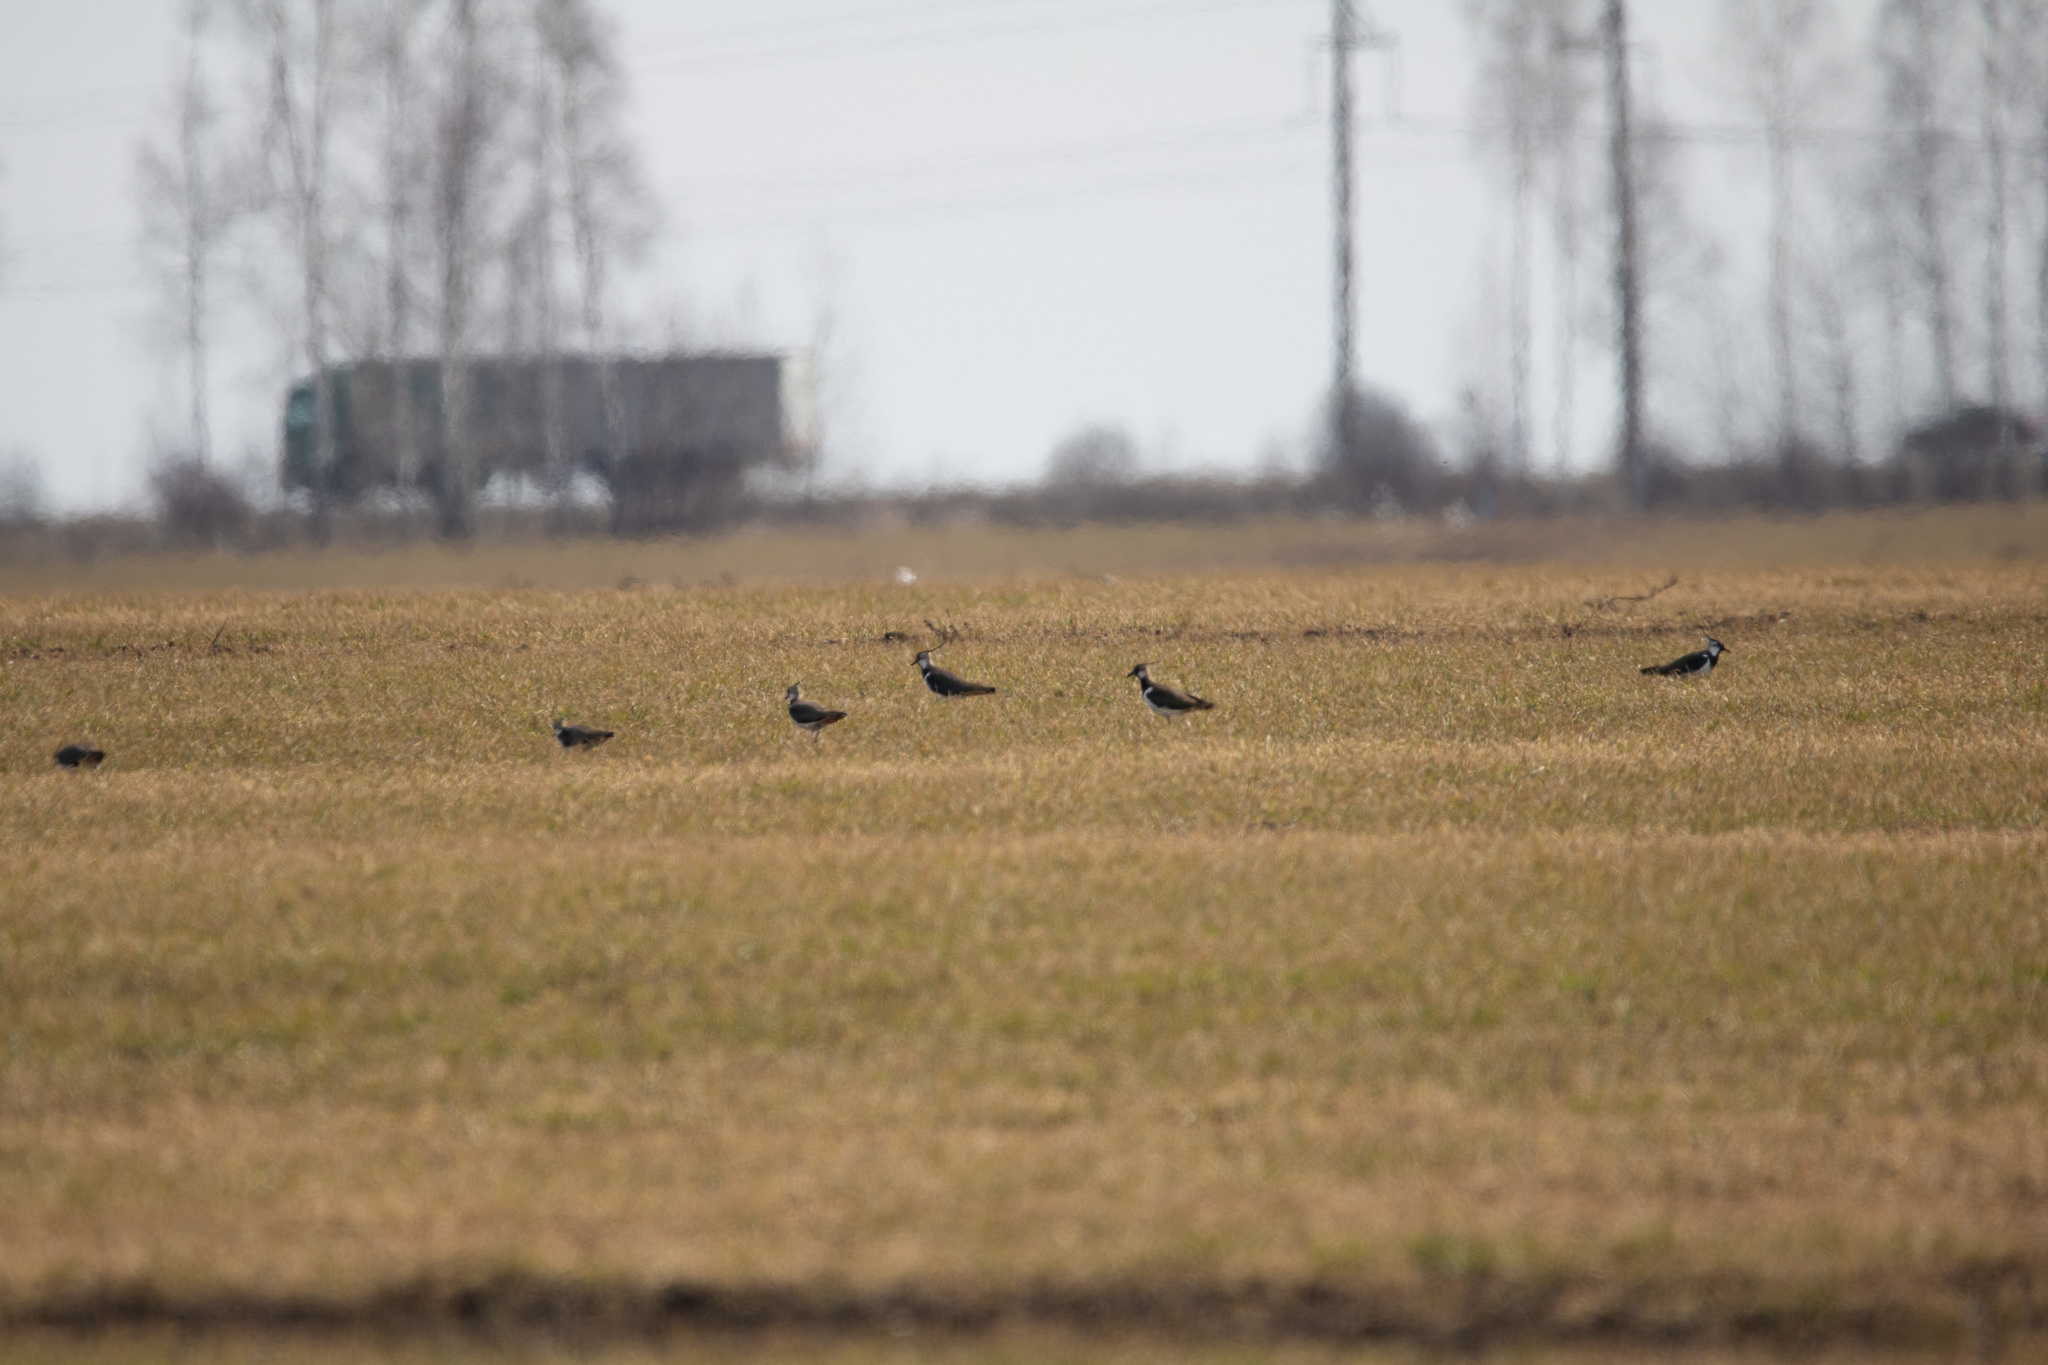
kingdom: Animalia
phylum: Chordata
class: Aves
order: Charadriiformes
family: Charadriidae
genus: Vanellus
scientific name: Vanellus vanellus
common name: Northern lapwing
